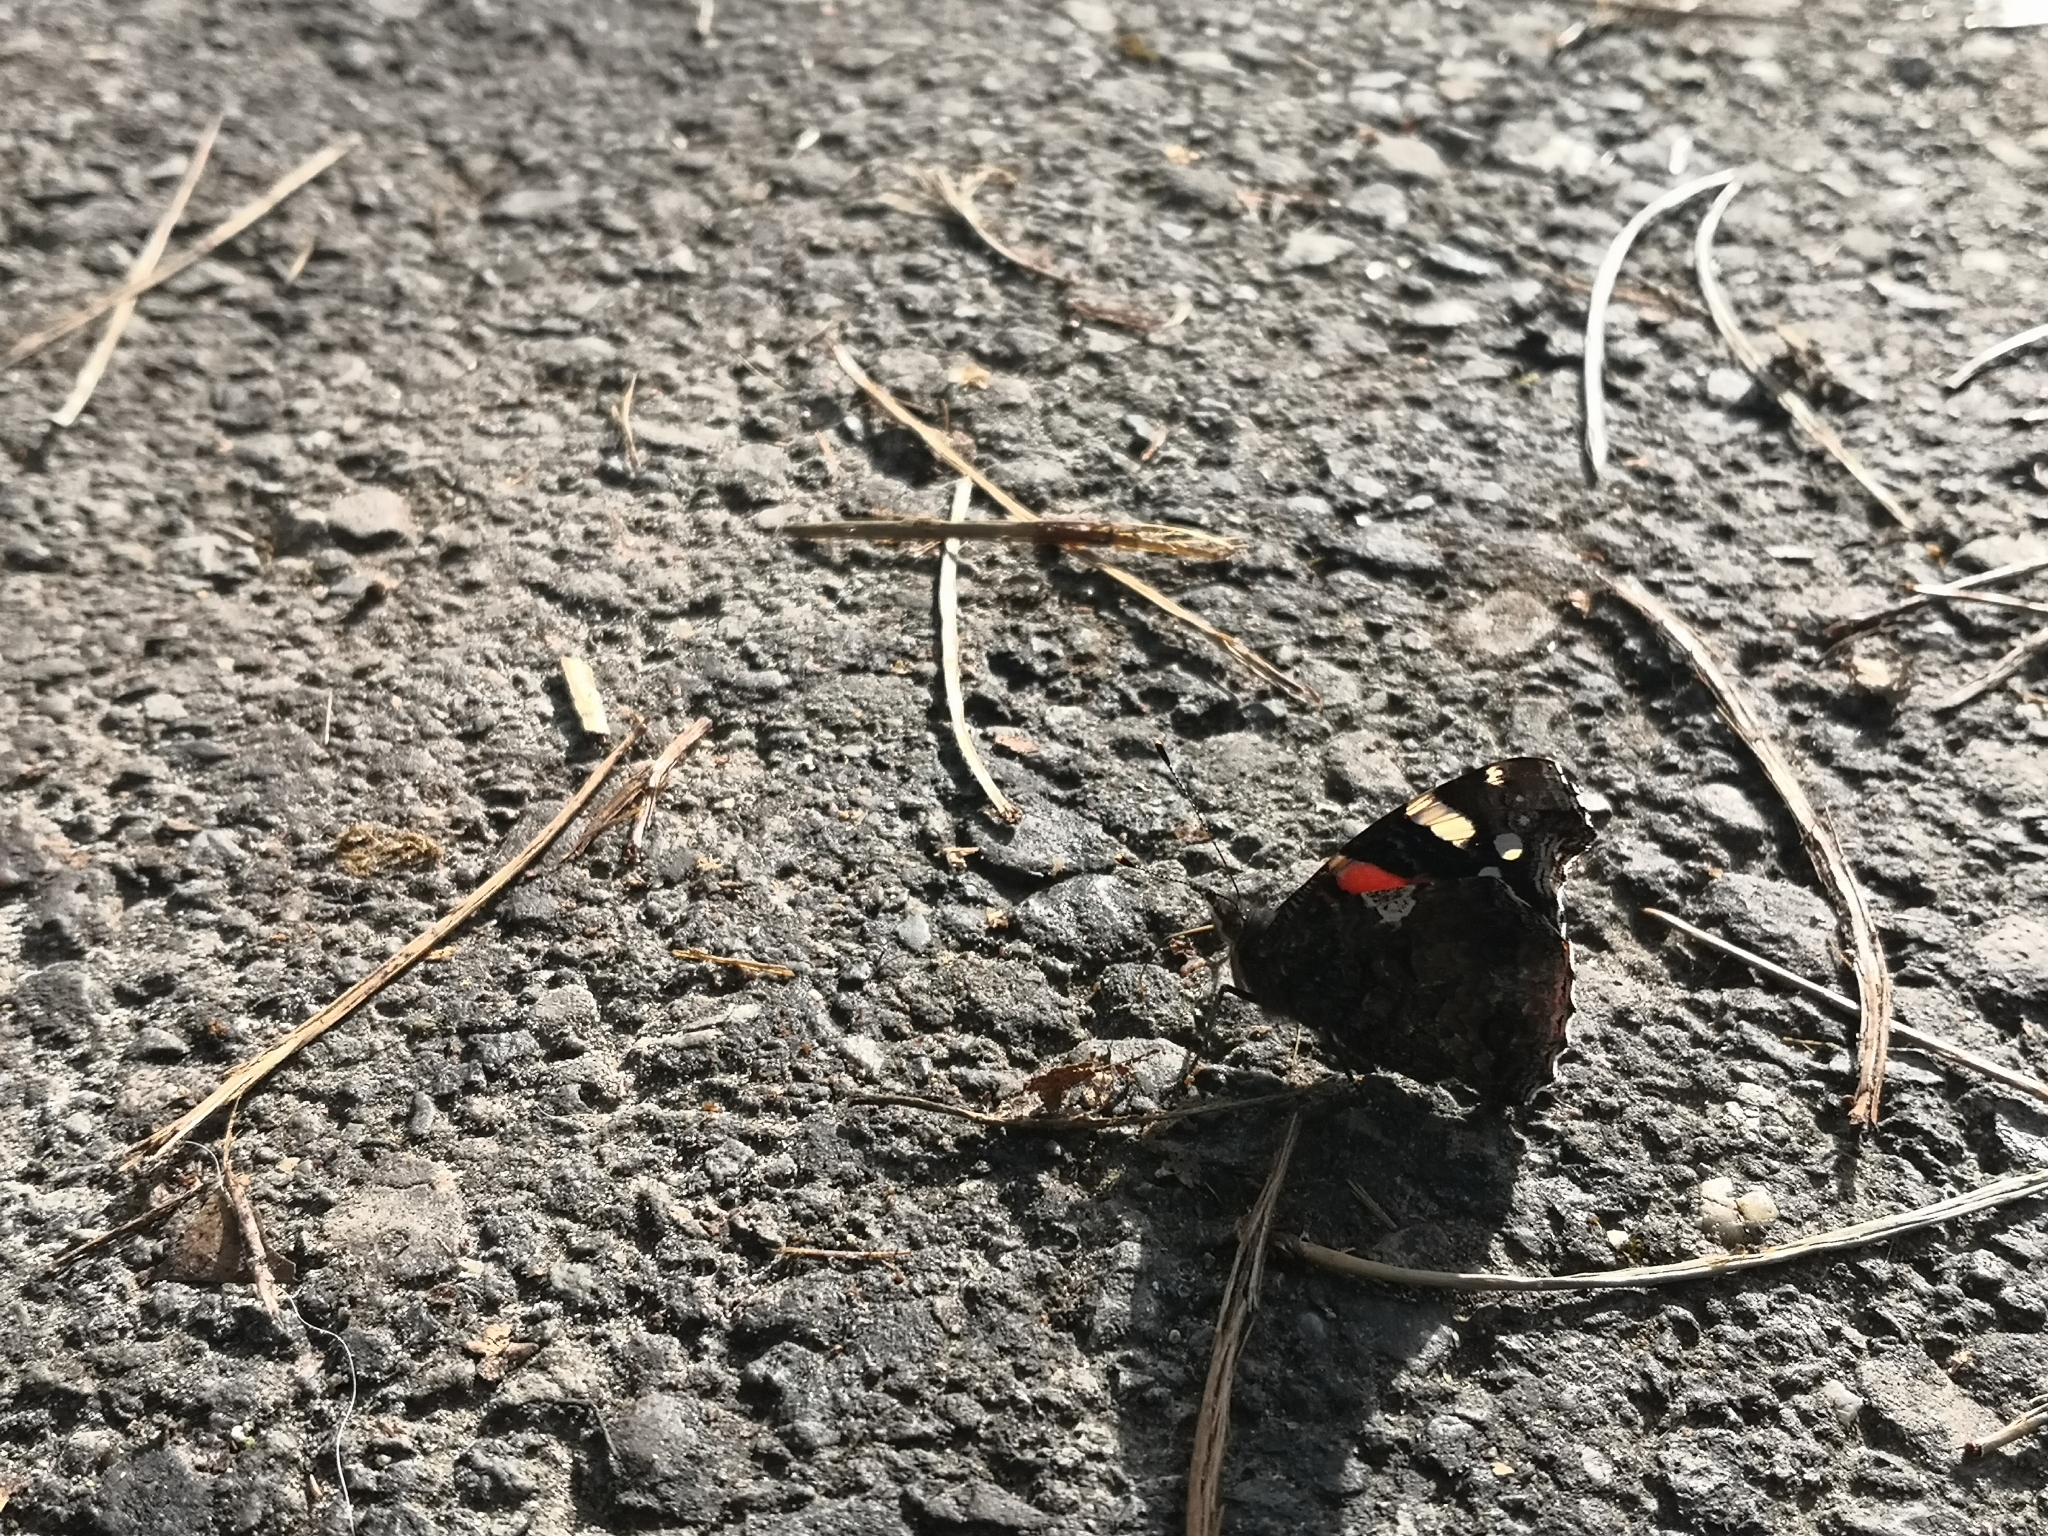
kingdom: Animalia
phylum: Arthropoda
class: Insecta
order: Lepidoptera
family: Nymphalidae
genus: Vanessa
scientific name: Vanessa atalanta
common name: Red admiral
